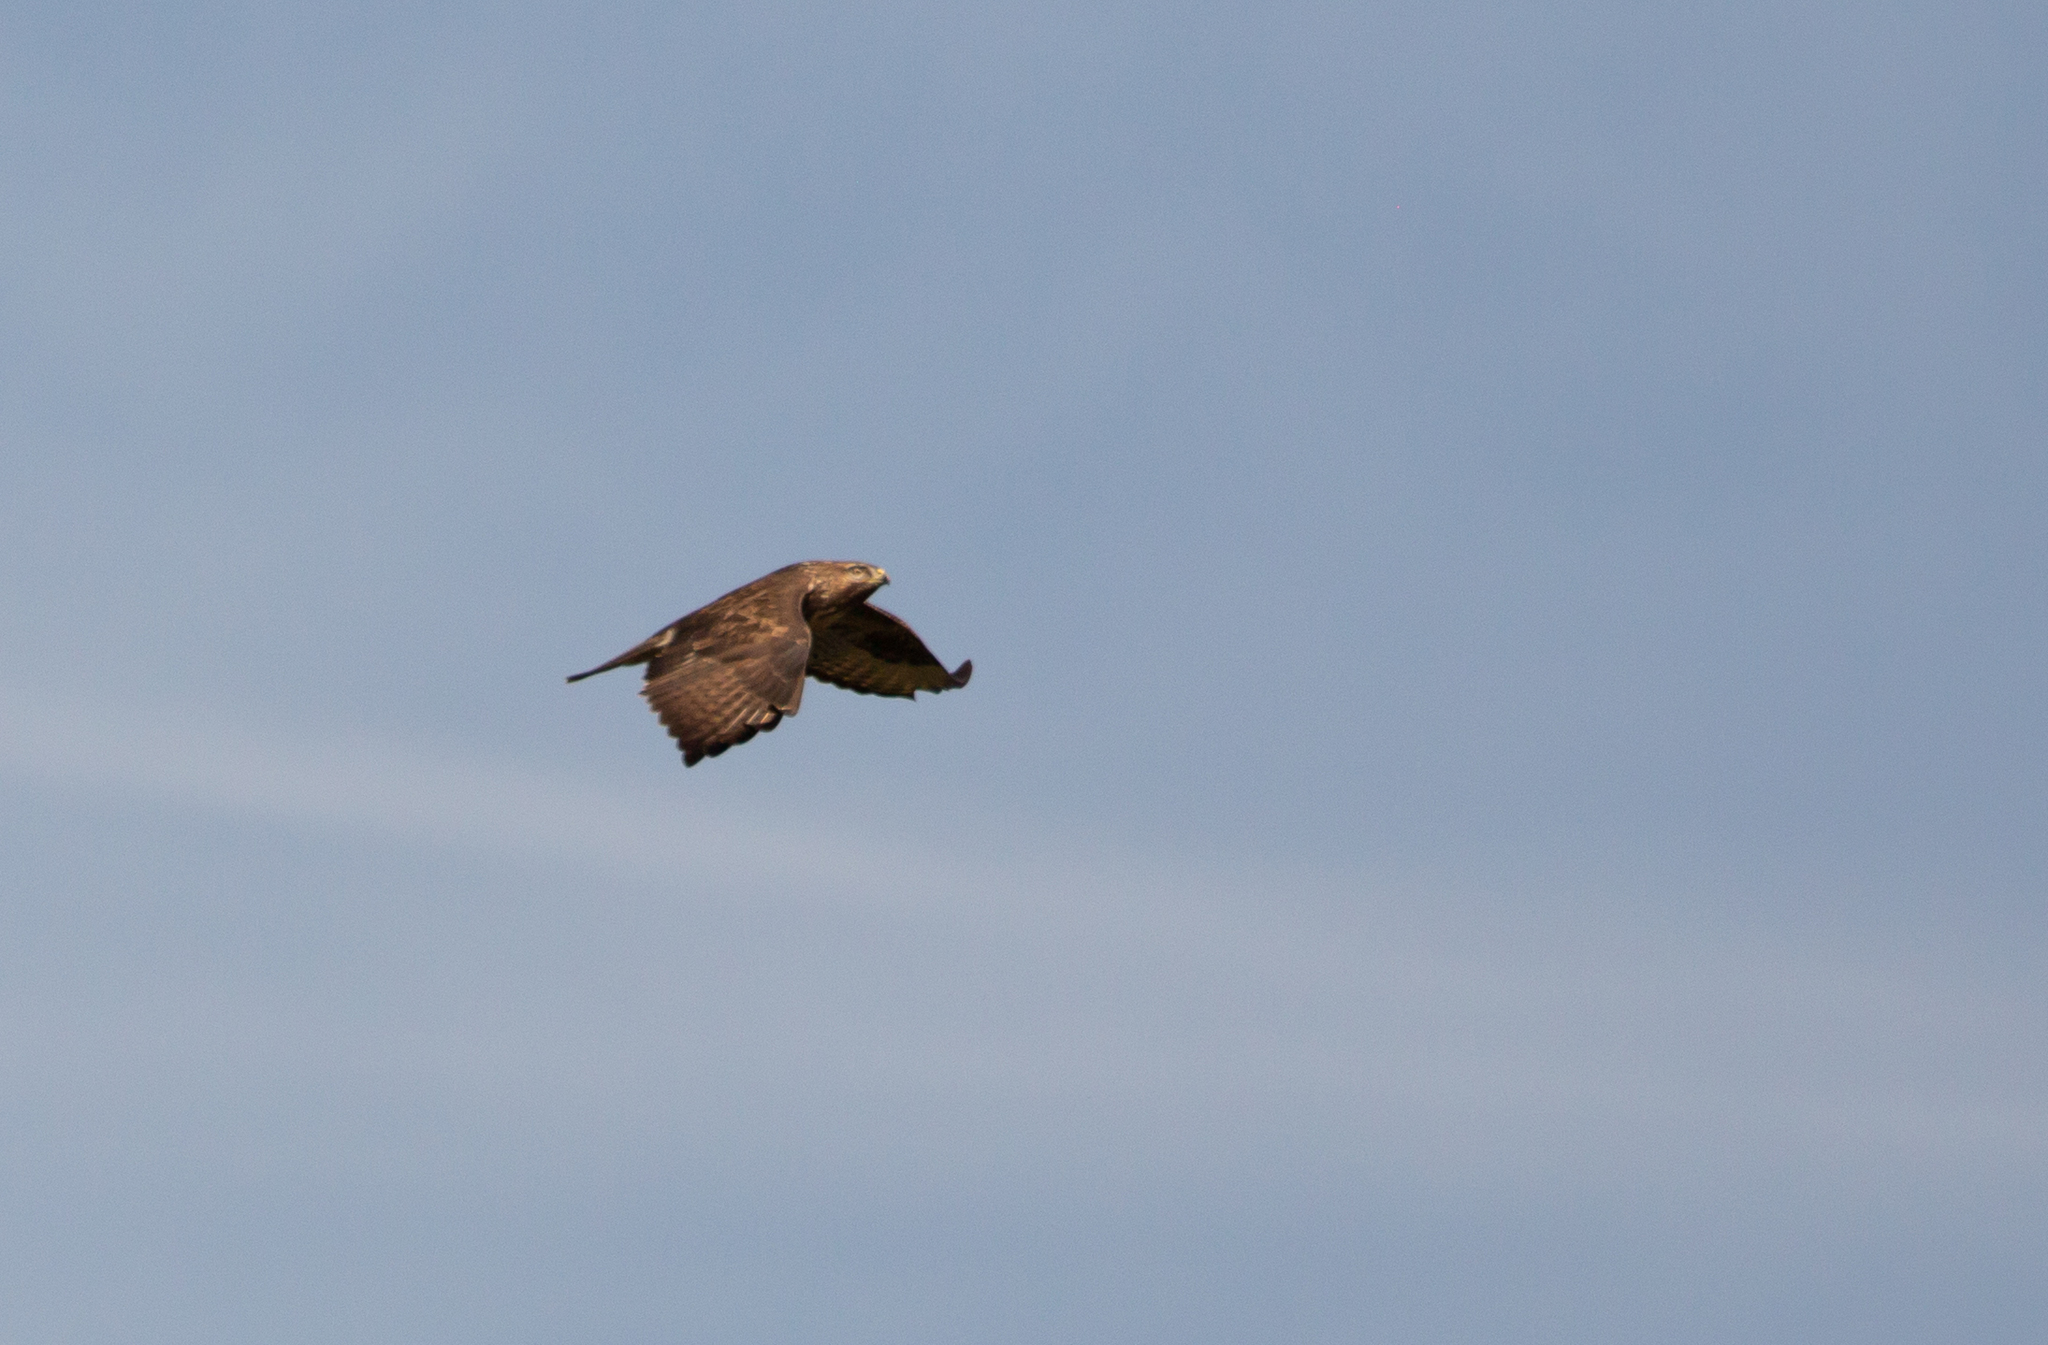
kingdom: Animalia
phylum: Chordata
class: Aves
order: Accipitriformes
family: Accipitridae
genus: Buteo
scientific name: Buteo buteo
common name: Common buzzard
